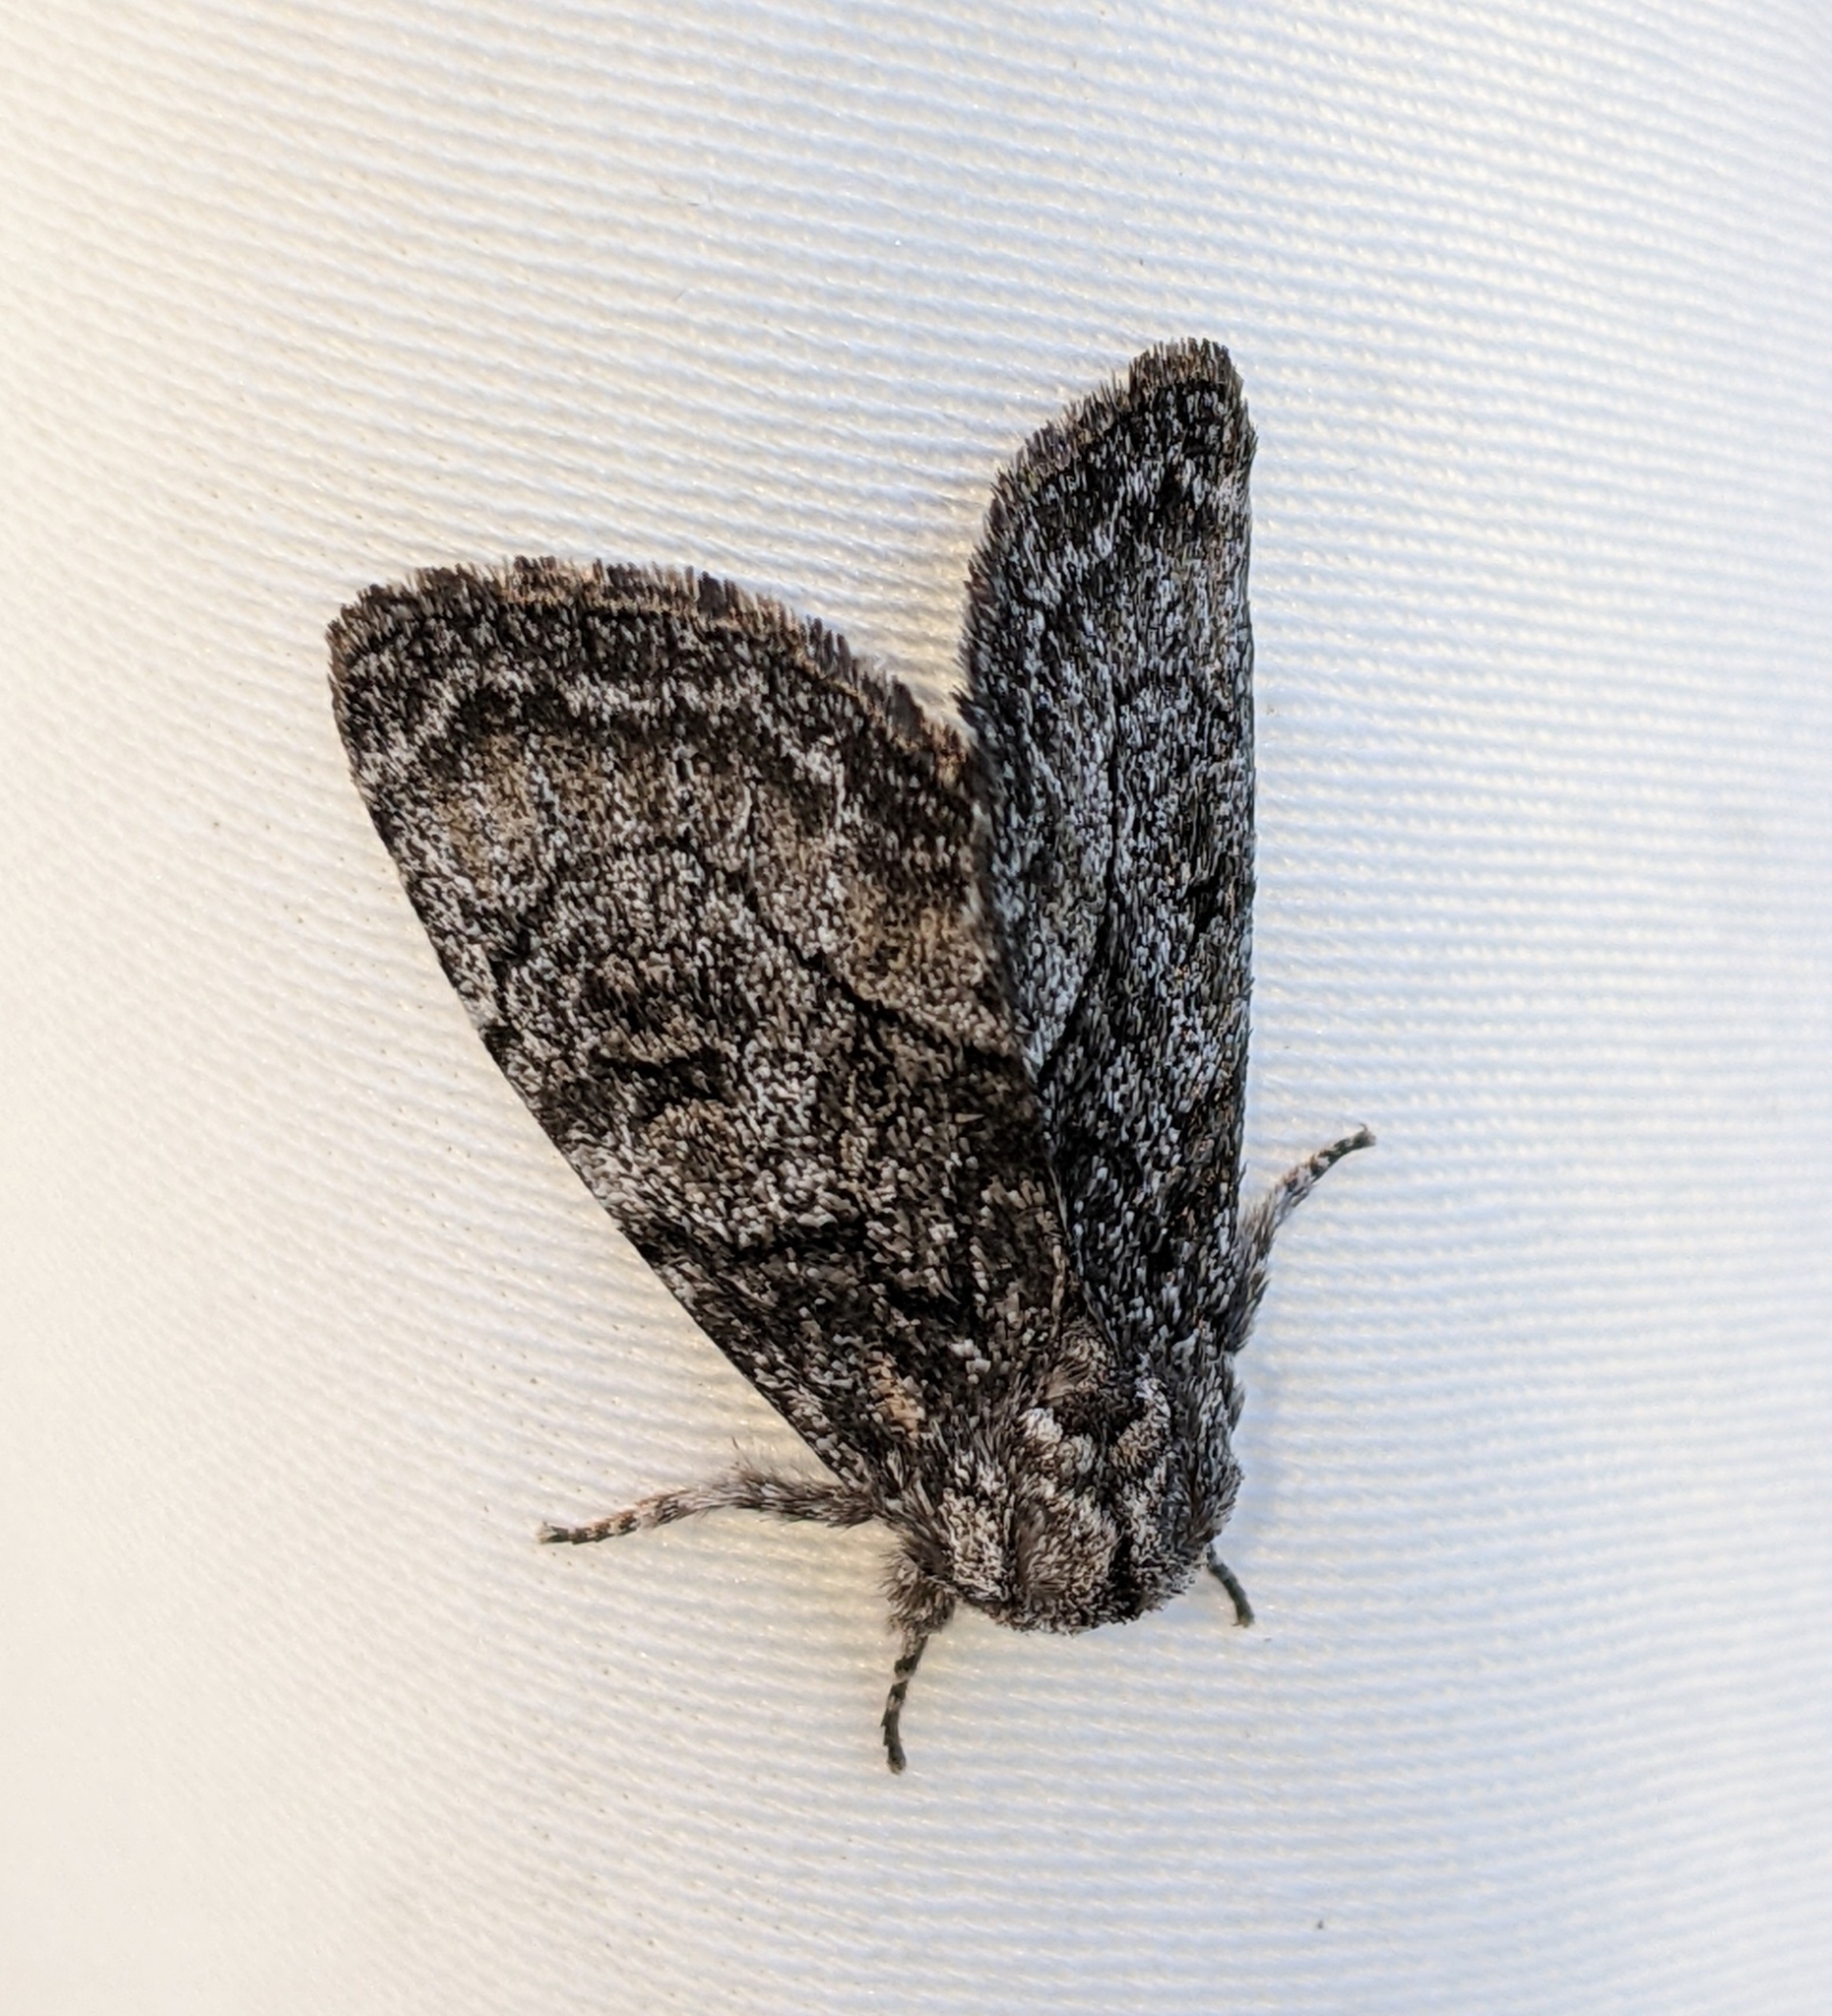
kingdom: Animalia
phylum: Arthropoda
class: Insecta
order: Lepidoptera
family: Noctuidae
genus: Raphia
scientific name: Raphia frater
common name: Brother
